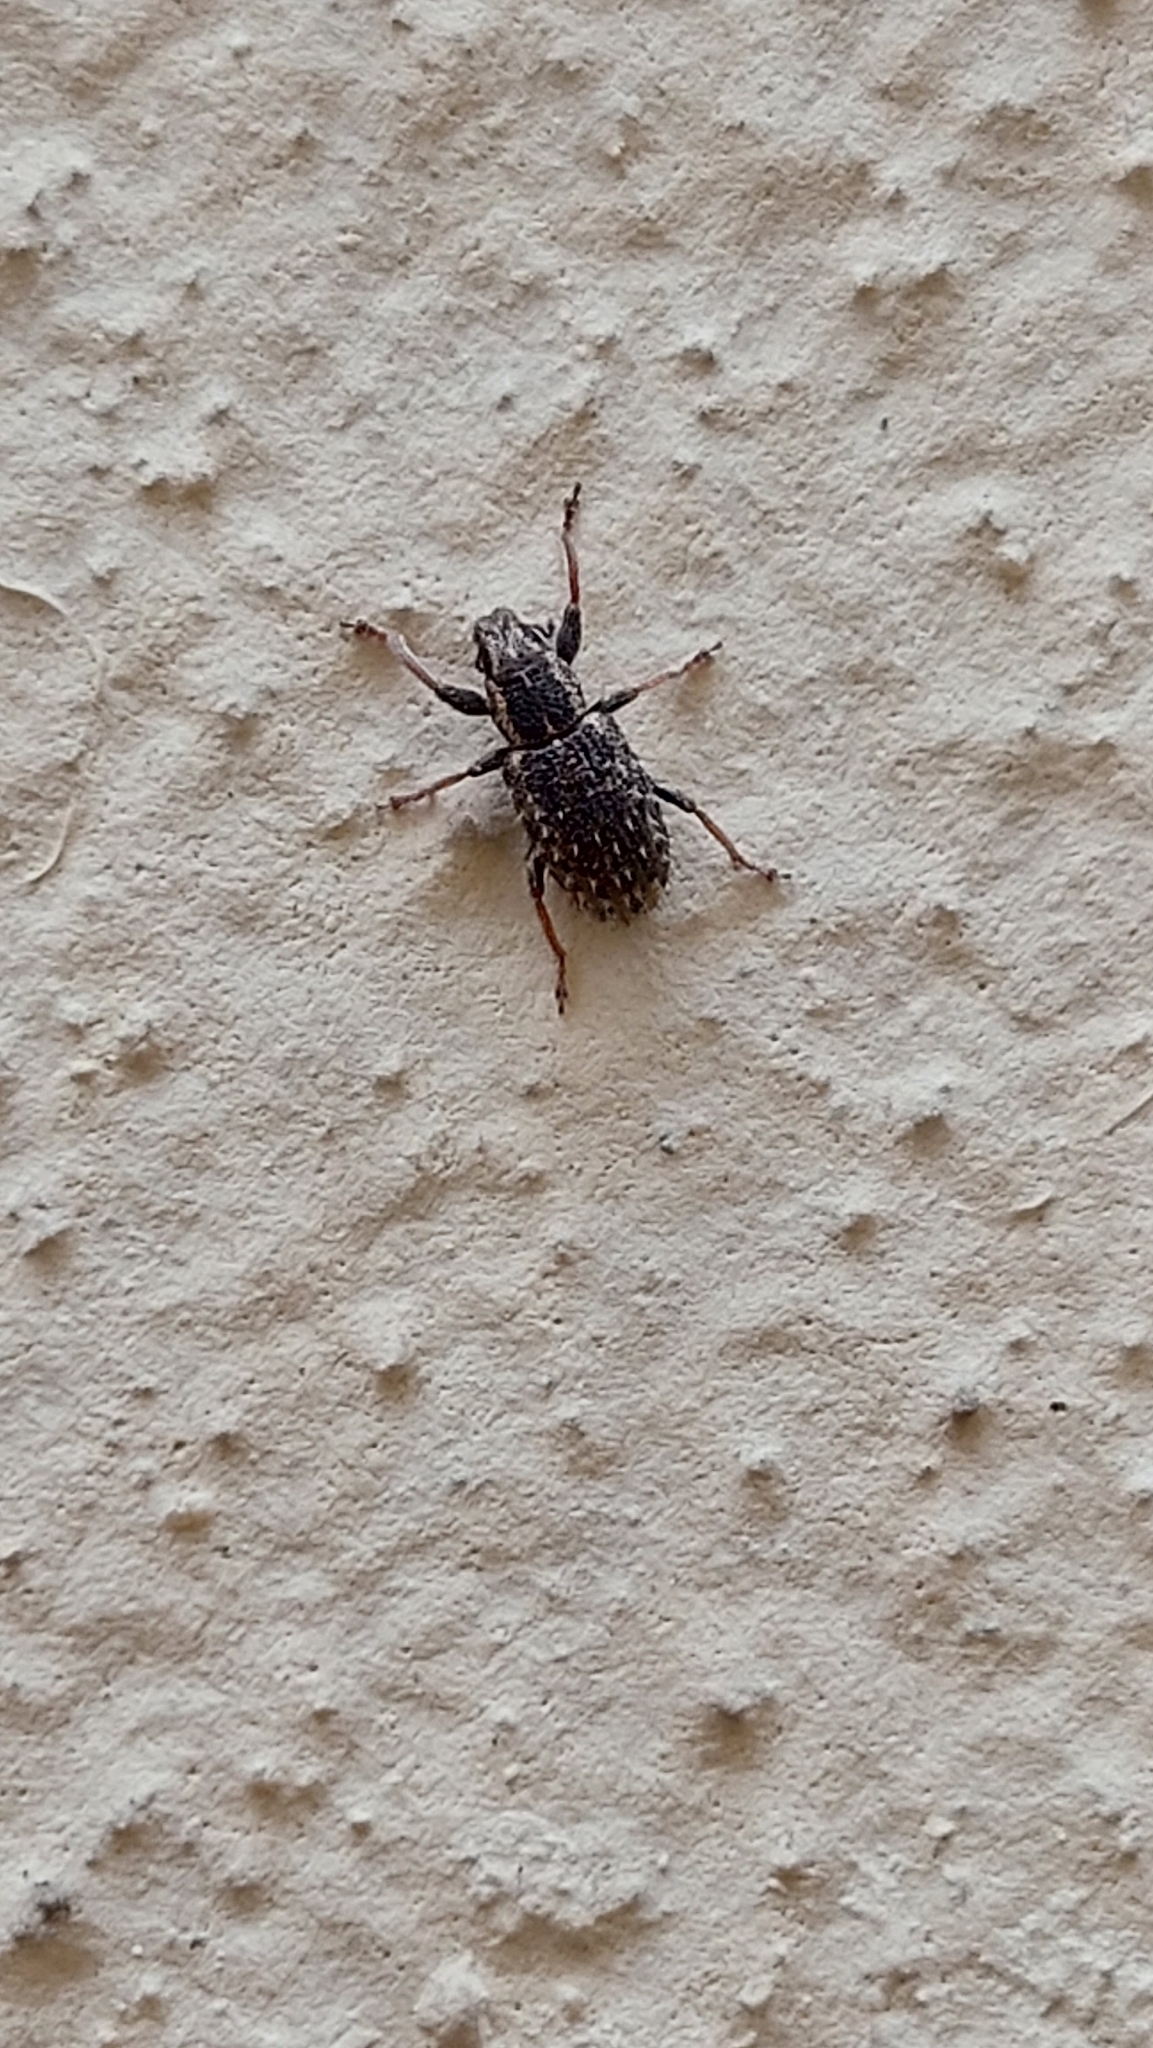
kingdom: Animalia
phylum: Arthropoda
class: Insecta
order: Coleoptera
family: Curculionidae
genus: Sitona
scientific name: Sitona hispidulus
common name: Clover weevil
